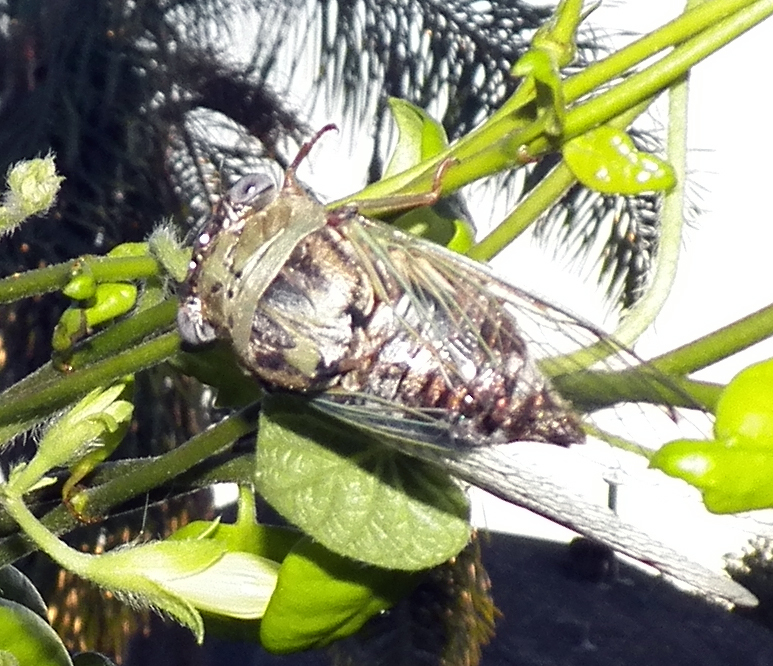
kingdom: Animalia
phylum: Arthropoda
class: Insecta
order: Hemiptera
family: Cicadidae
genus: Megatibicen
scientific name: Megatibicen resh
